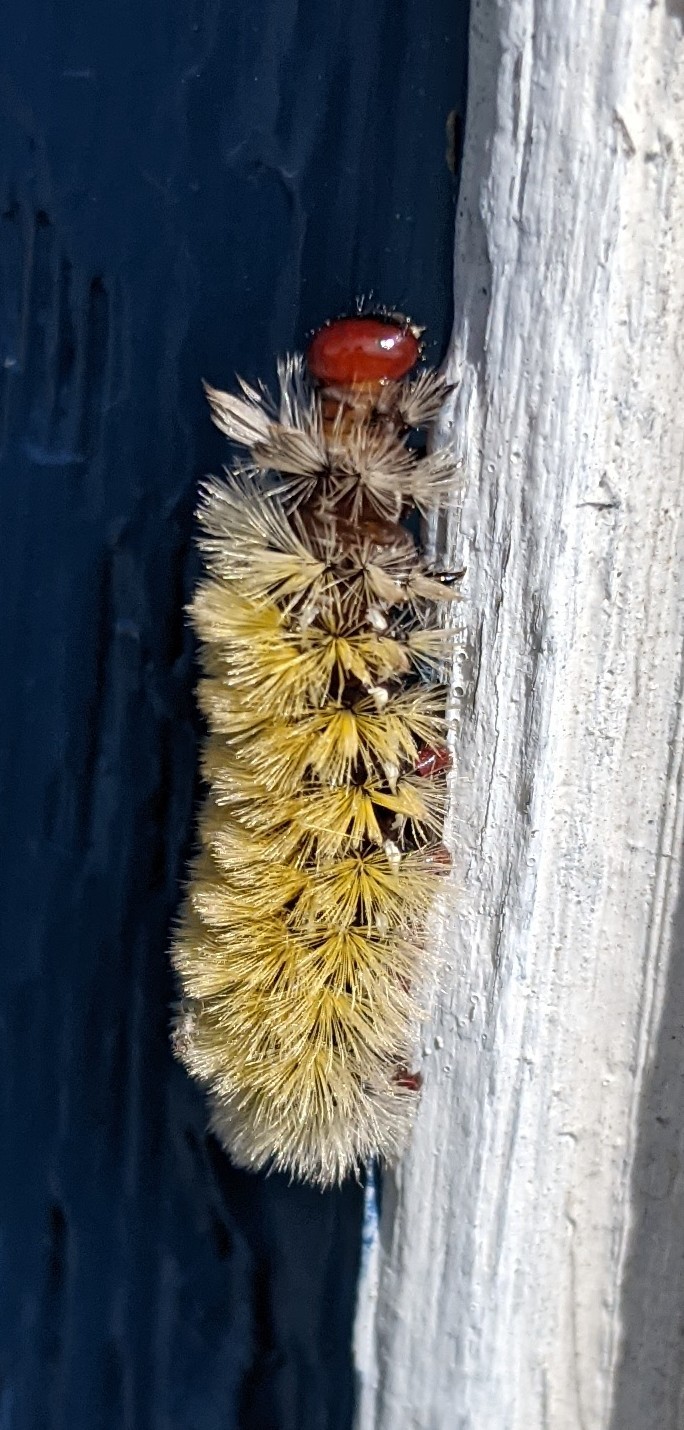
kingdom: Animalia
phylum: Arthropoda
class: Insecta
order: Lepidoptera
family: Erebidae
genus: Ctenucha
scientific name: Ctenucha virginica
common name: Virginia ctenucha moth
